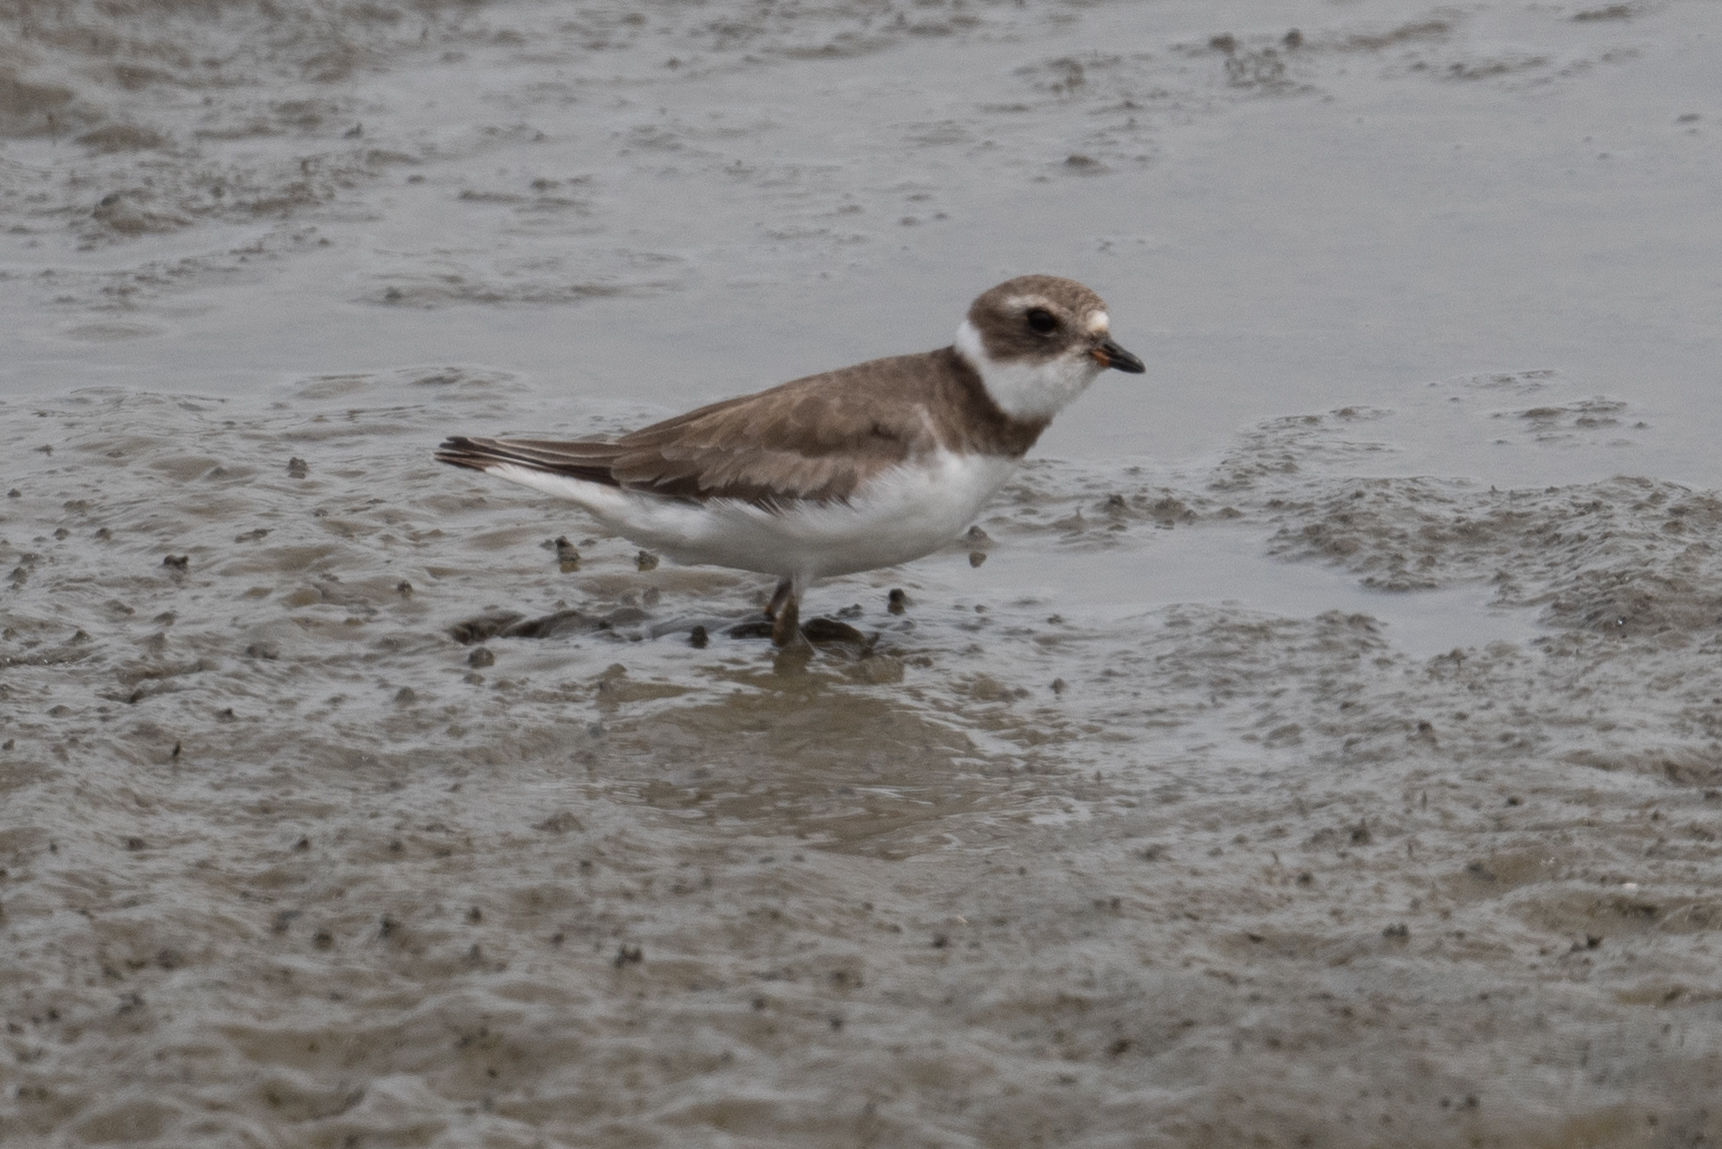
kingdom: Animalia
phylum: Chordata
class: Aves
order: Charadriiformes
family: Charadriidae
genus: Charadrius
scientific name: Charadrius semipalmatus
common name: Semipalmated plover
